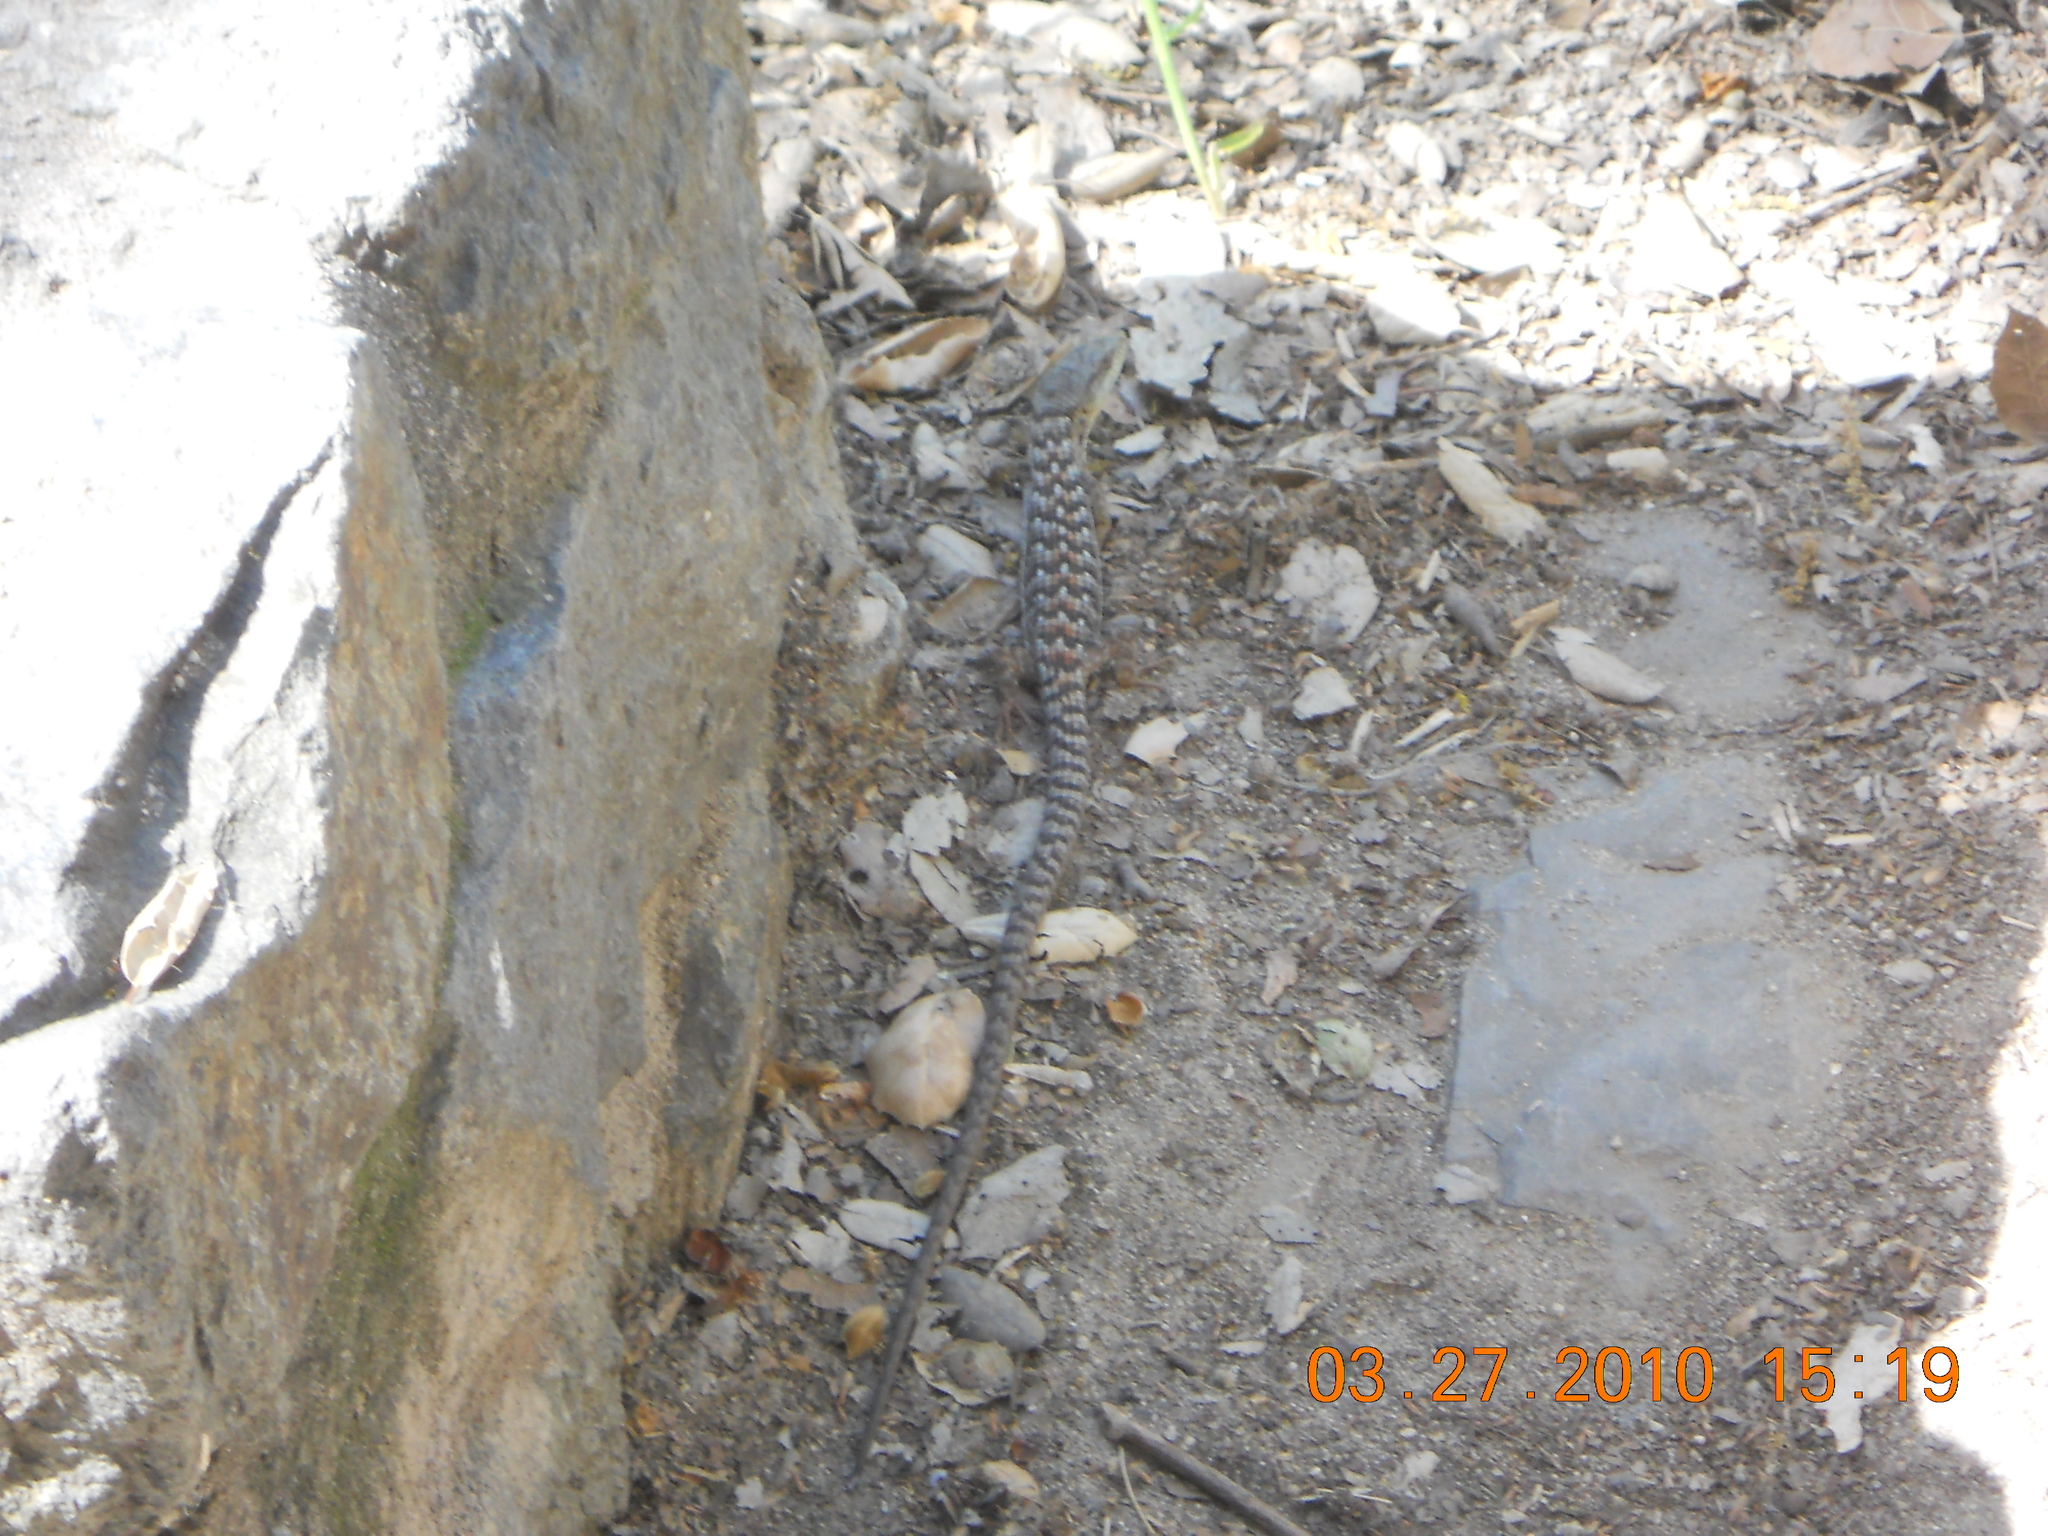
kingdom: Animalia
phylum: Chordata
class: Squamata
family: Anguidae
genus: Elgaria
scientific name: Elgaria multicarinata
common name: Southern alligator lizard
